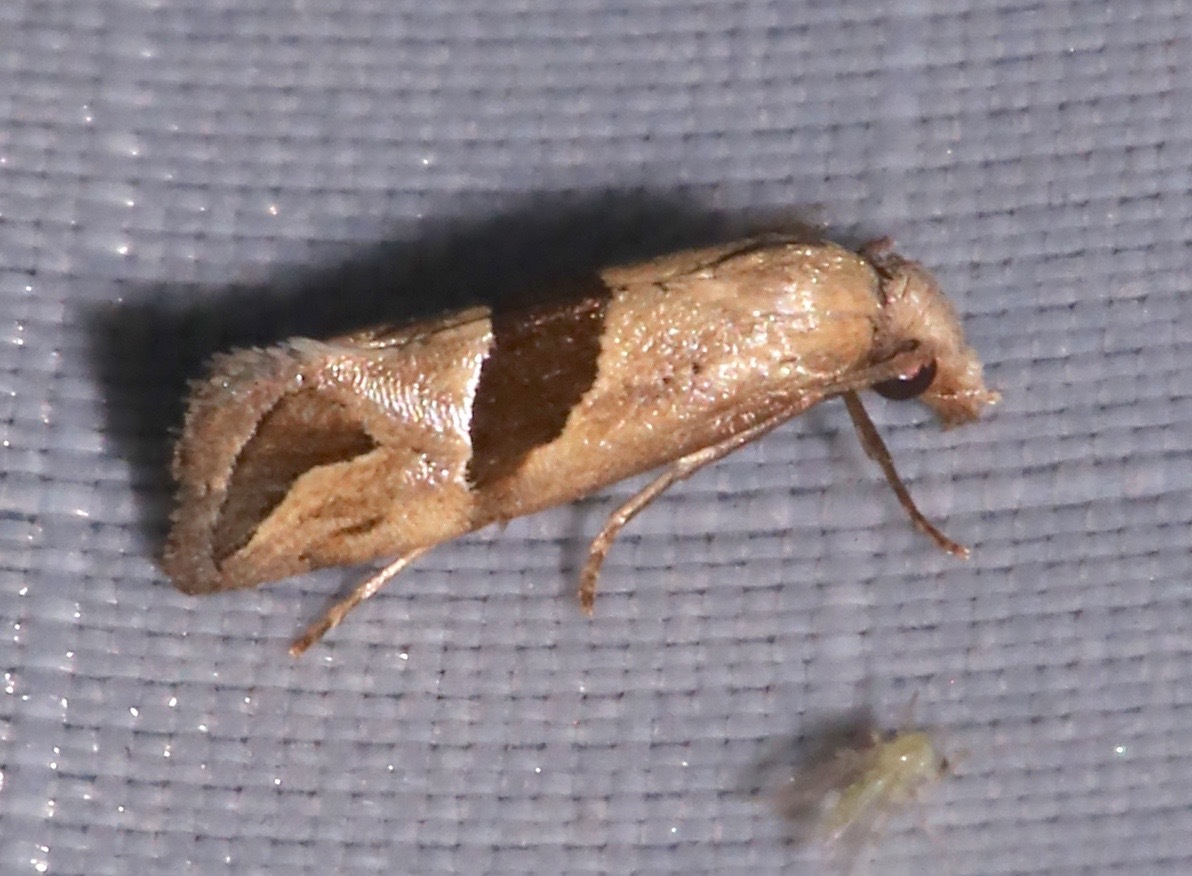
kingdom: Animalia
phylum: Arthropoda
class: Insecta
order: Lepidoptera
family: Tortricidae
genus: Eugnosta
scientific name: Eugnosta sartana
